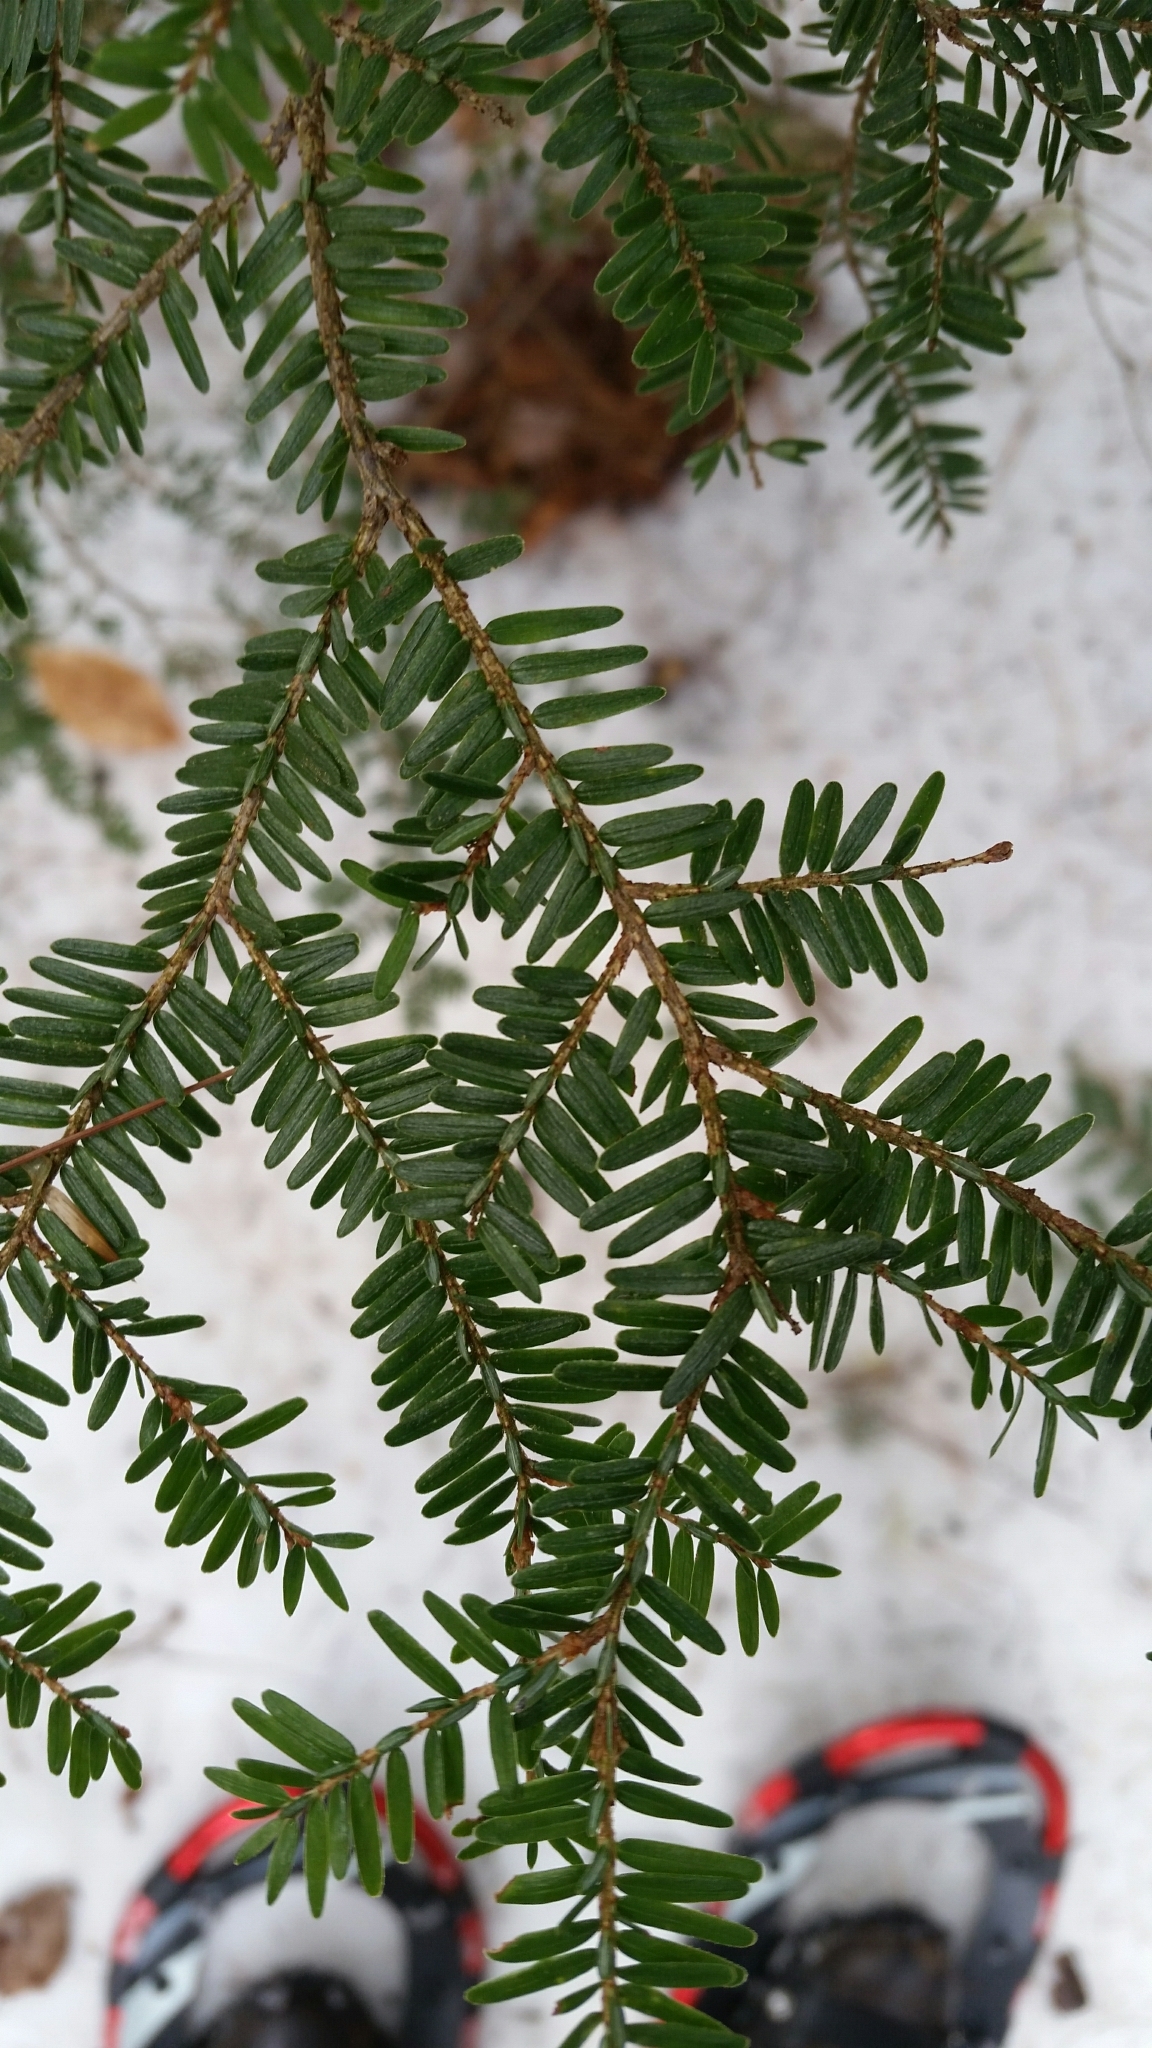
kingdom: Plantae
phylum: Tracheophyta
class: Pinopsida
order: Pinales
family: Pinaceae
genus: Tsuga
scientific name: Tsuga canadensis
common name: Eastern hemlock
